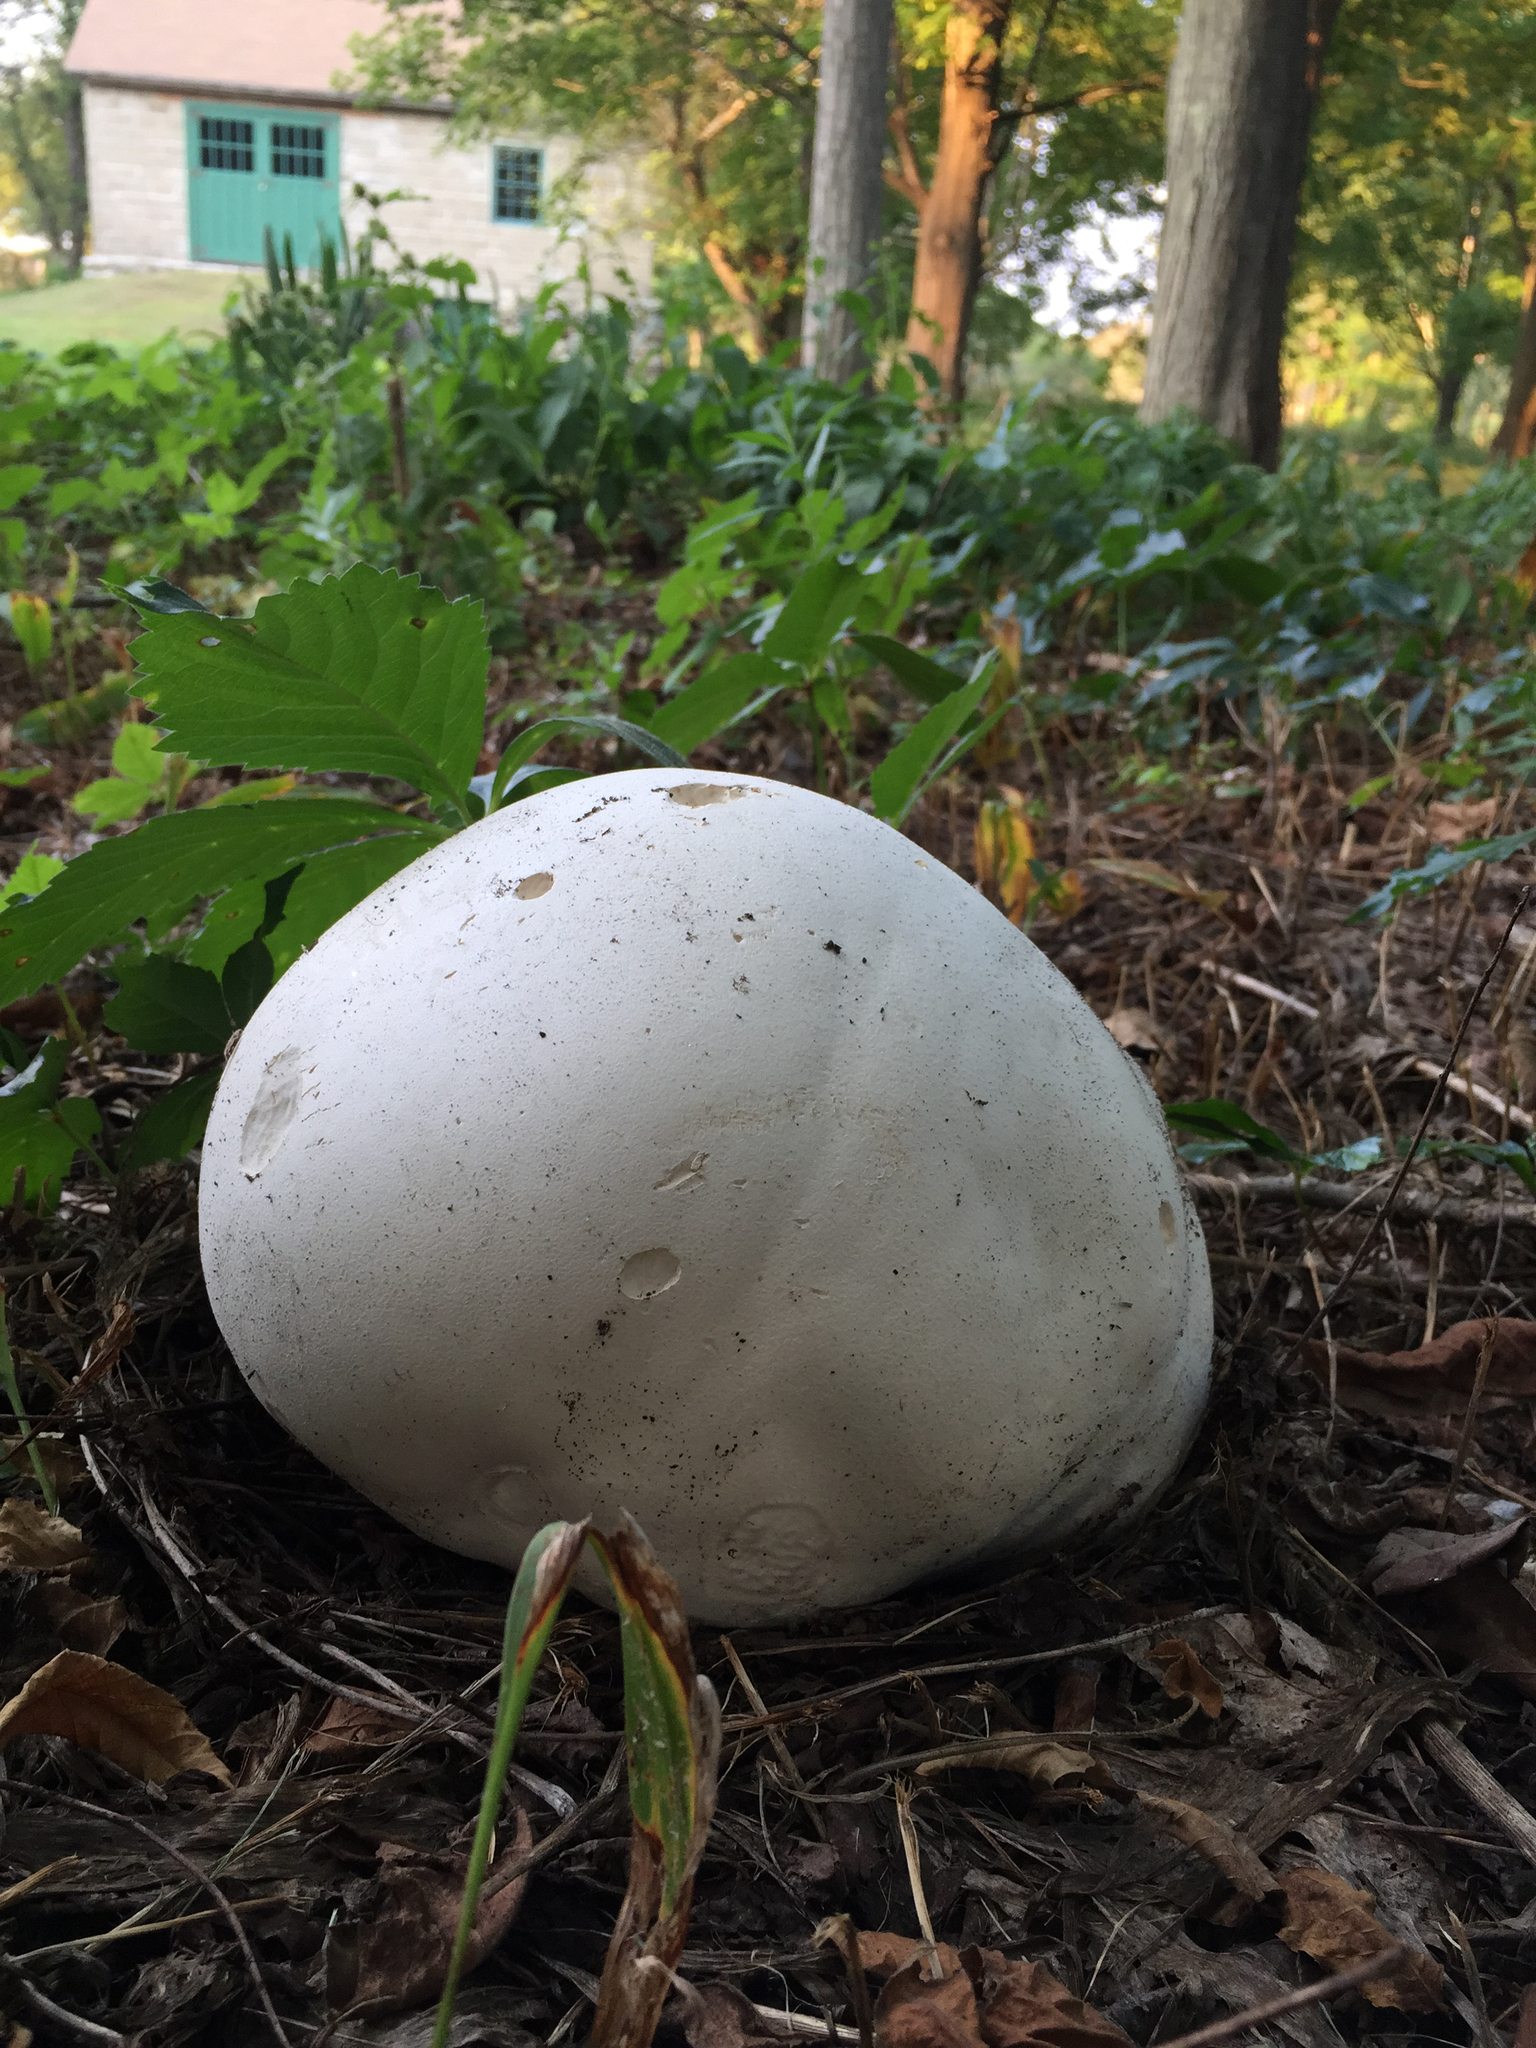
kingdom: Fungi
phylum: Basidiomycota
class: Agaricomycetes
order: Agaricales
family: Lycoperdaceae
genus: Calvatia
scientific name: Calvatia gigantea
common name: Giant puffball
